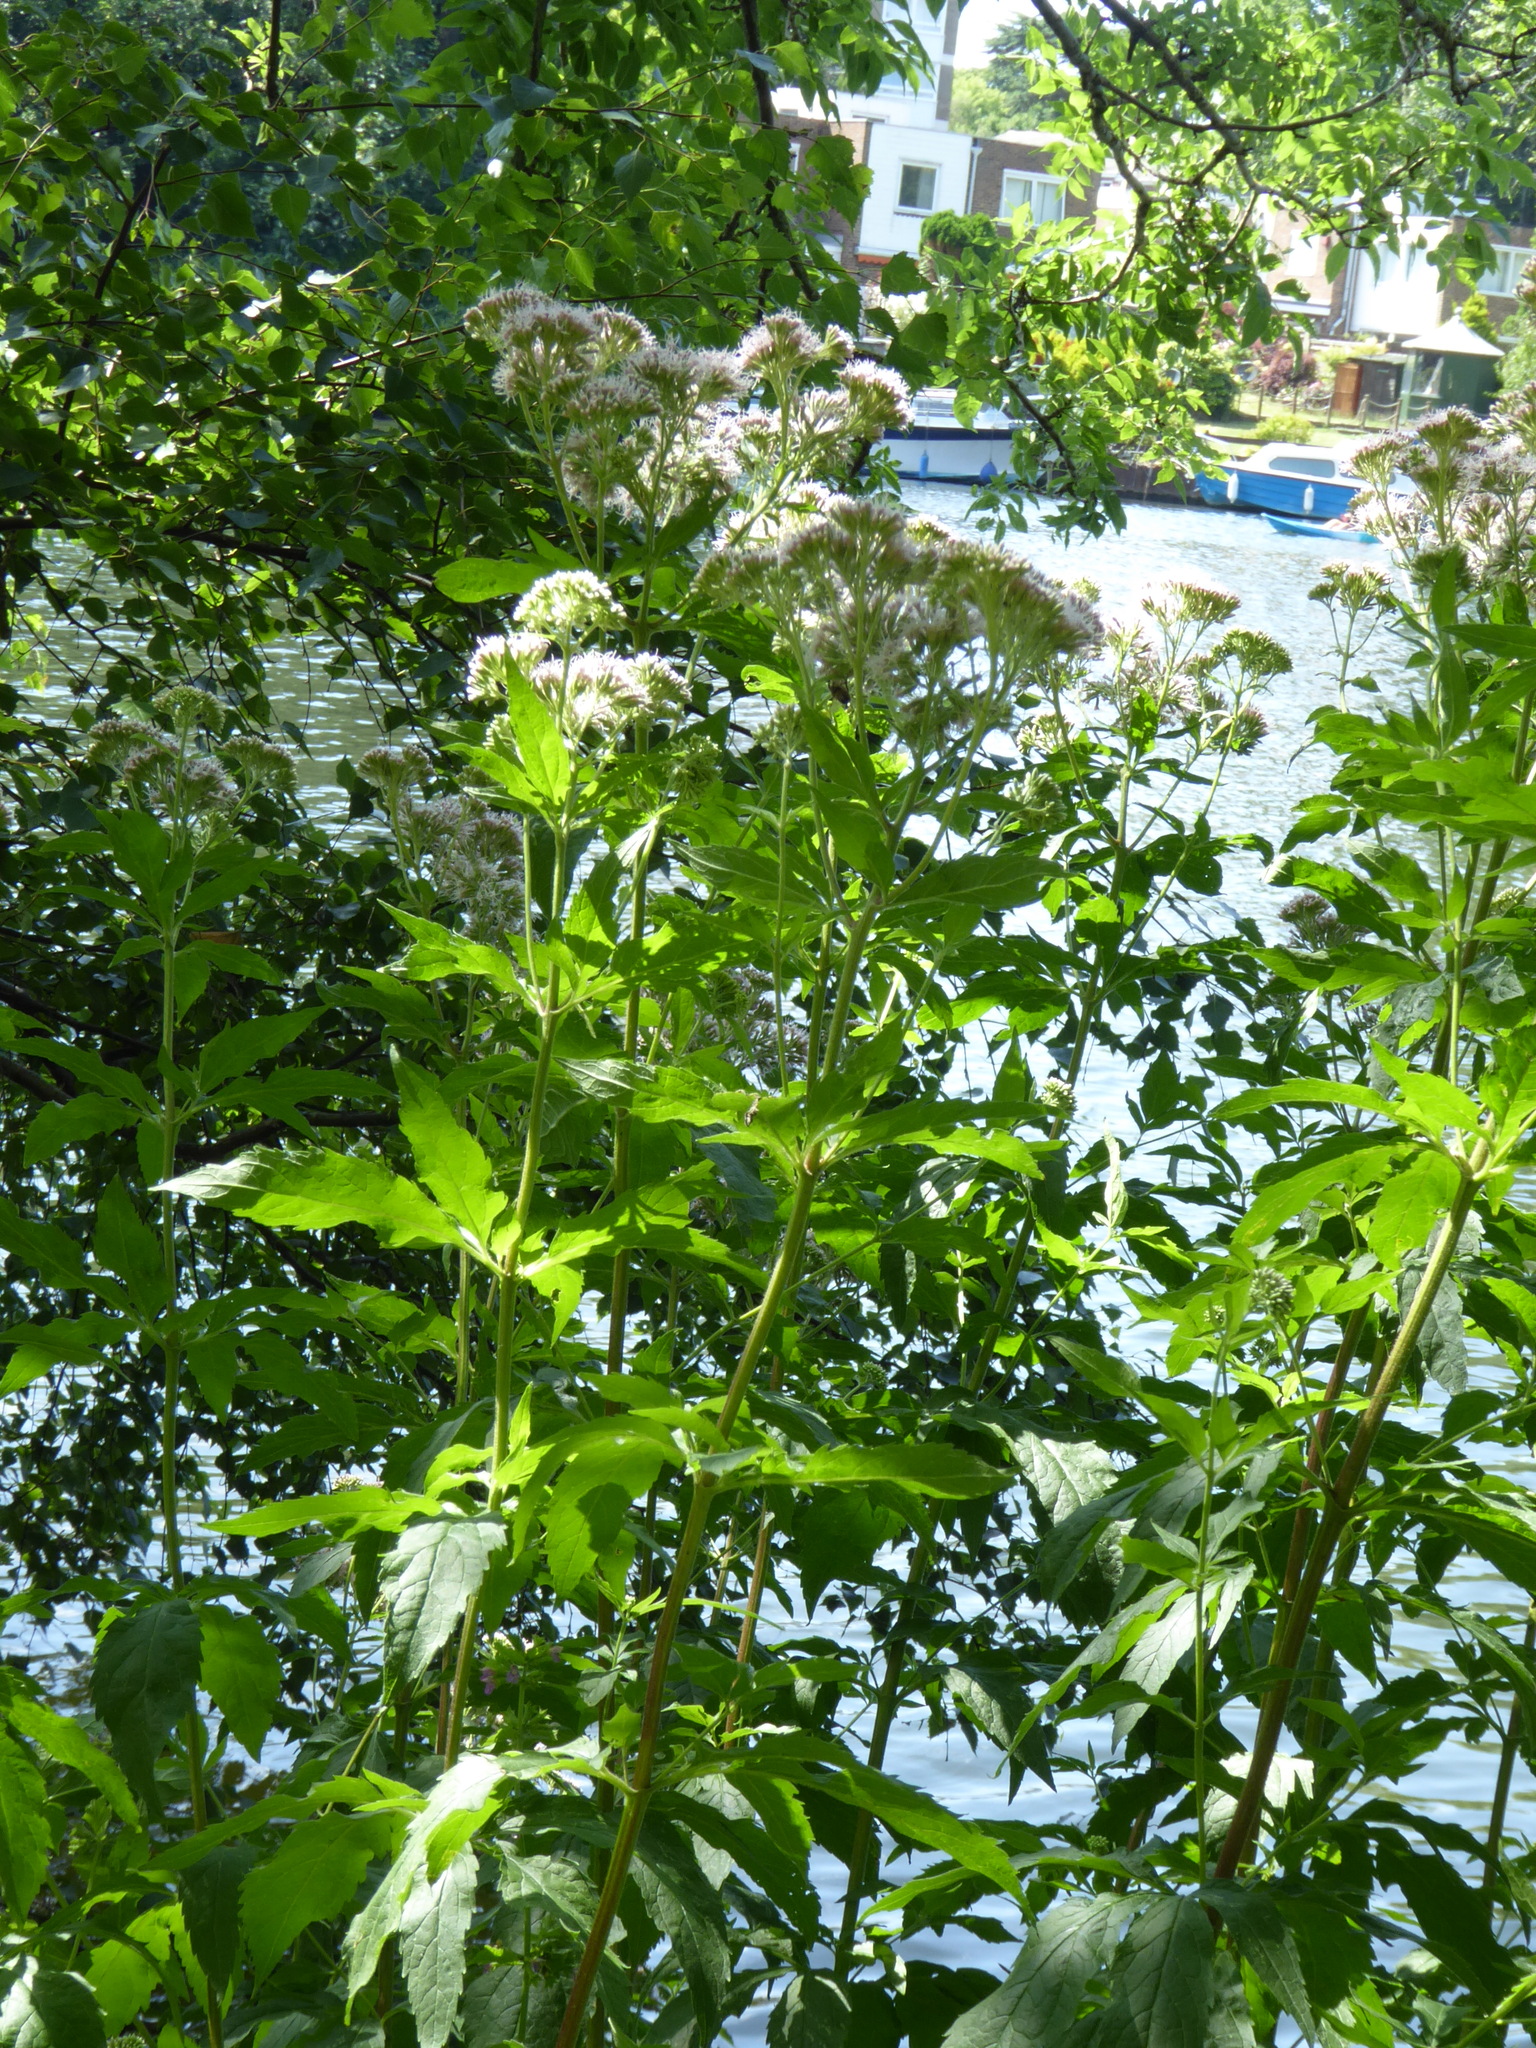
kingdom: Plantae
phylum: Tracheophyta
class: Magnoliopsida
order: Asterales
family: Asteraceae
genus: Eupatorium
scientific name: Eupatorium cannabinum
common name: Hemp-agrimony
